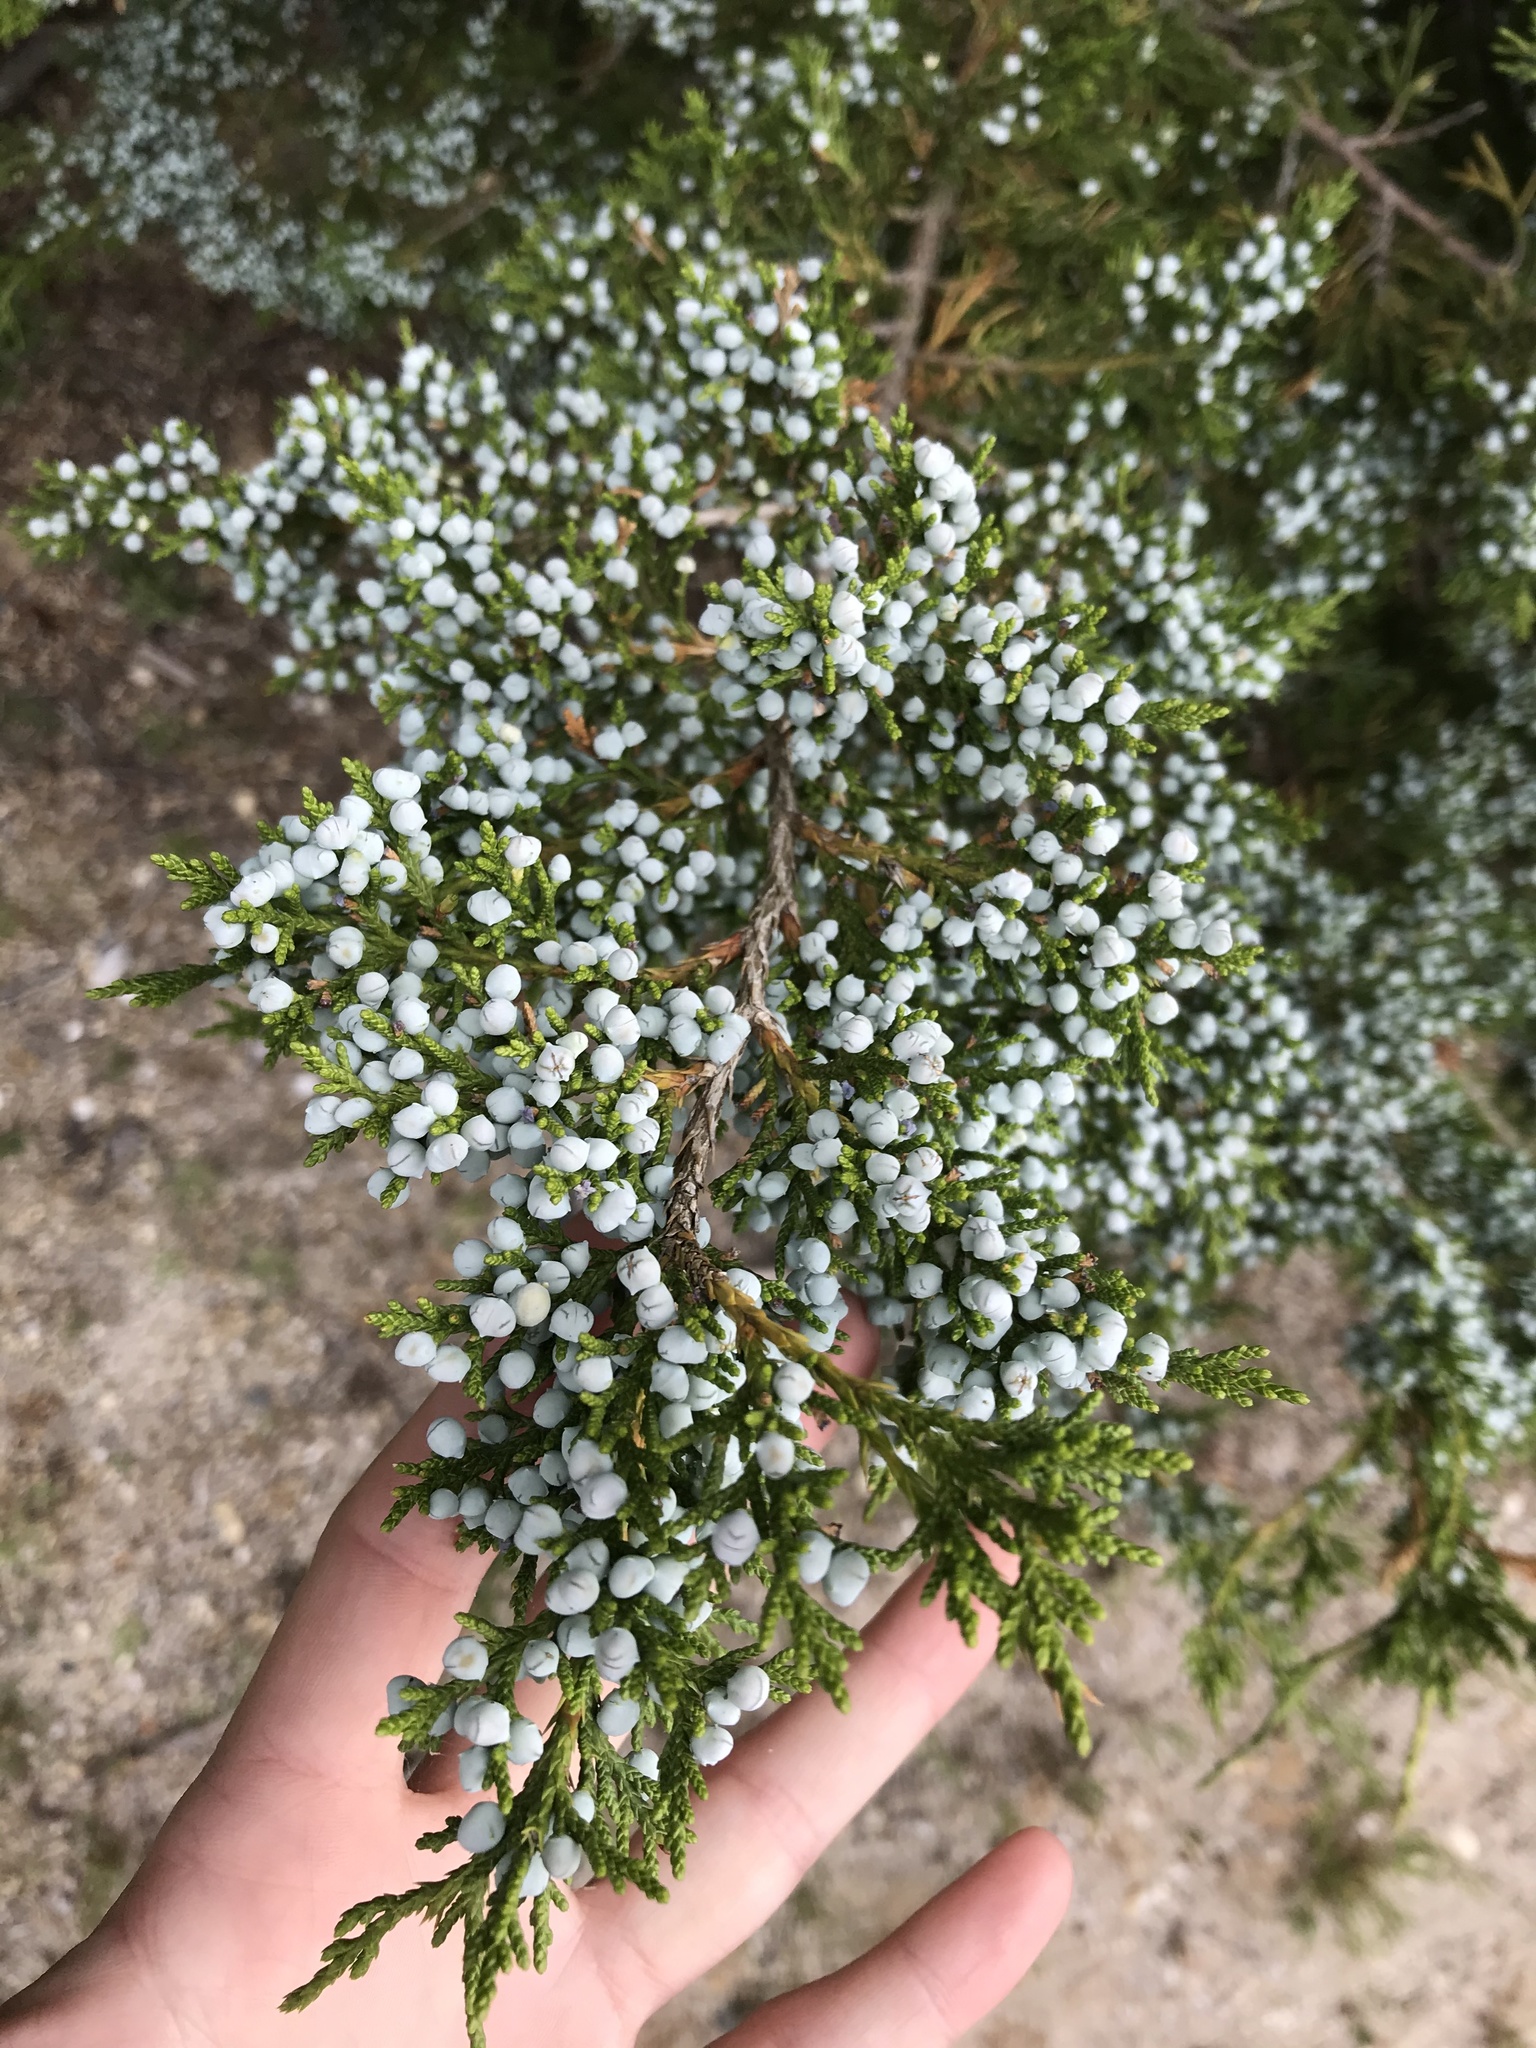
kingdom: Plantae
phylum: Tracheophyta
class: Pinopsida
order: Pinales
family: Cupressaceae
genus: Juniperus
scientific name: Juniperus virginiana
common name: Red juniper
